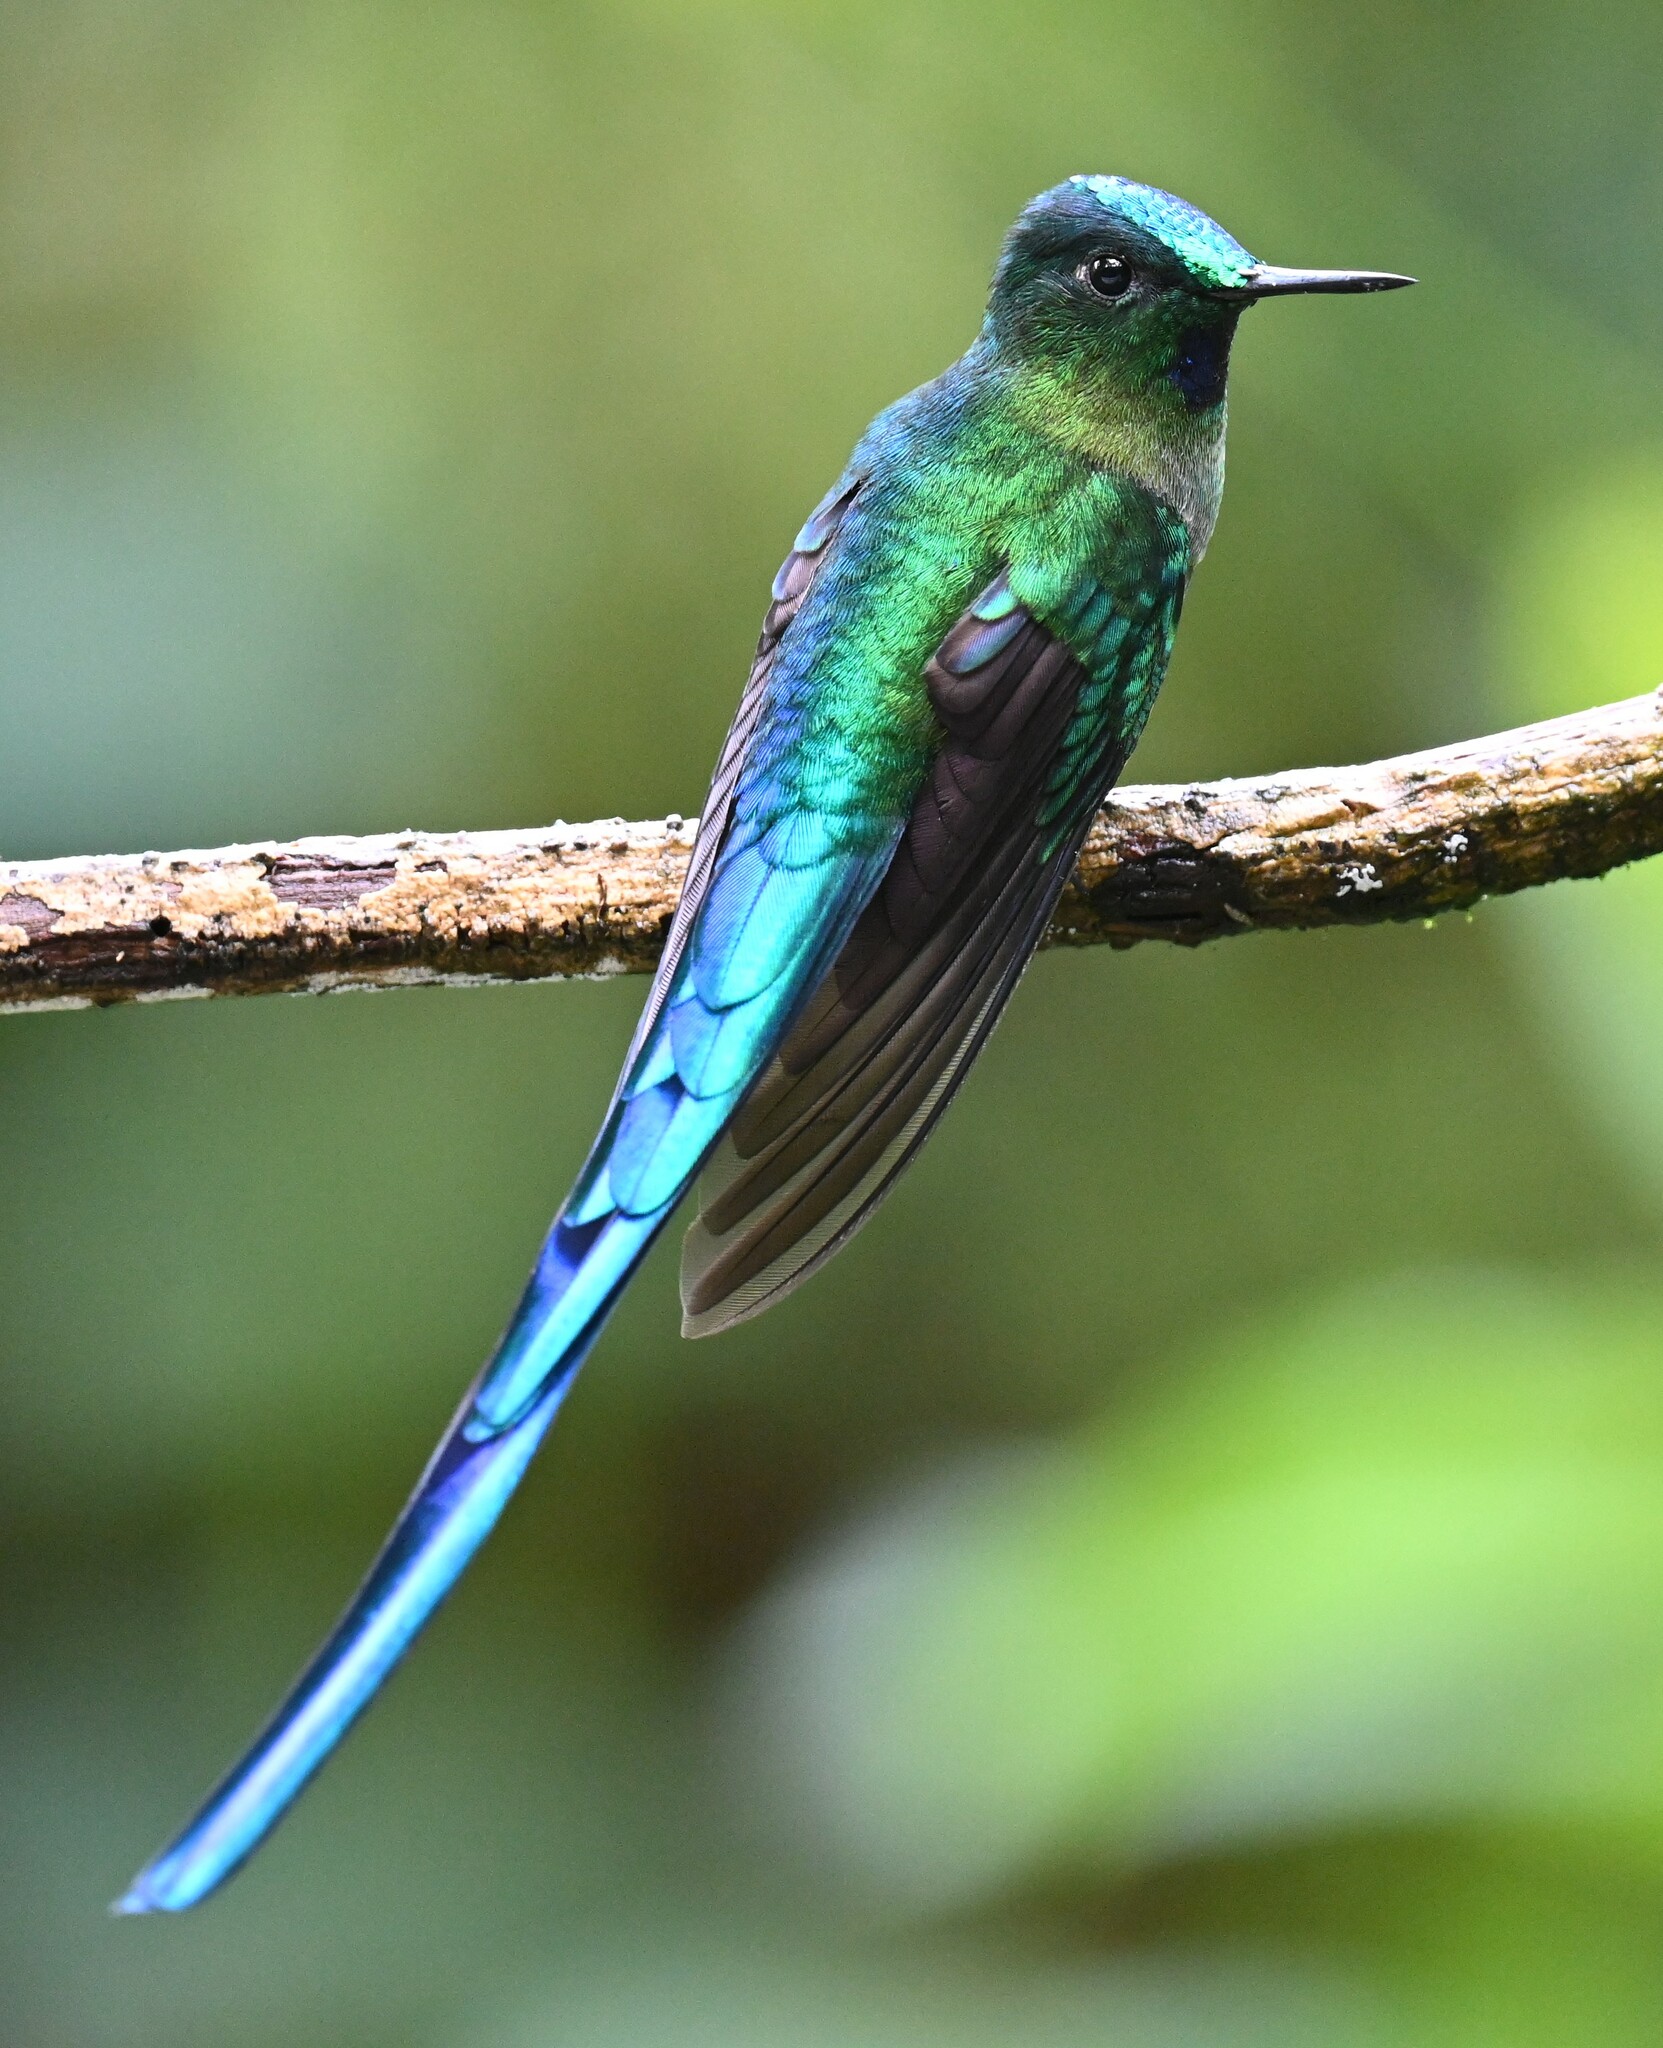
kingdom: Animalia
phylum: Chordata
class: Aves
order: Apodiformes
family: Trochilidae
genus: Aglaiocercus
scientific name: Aglaiocercus kingii
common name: Long-tailed sylph
